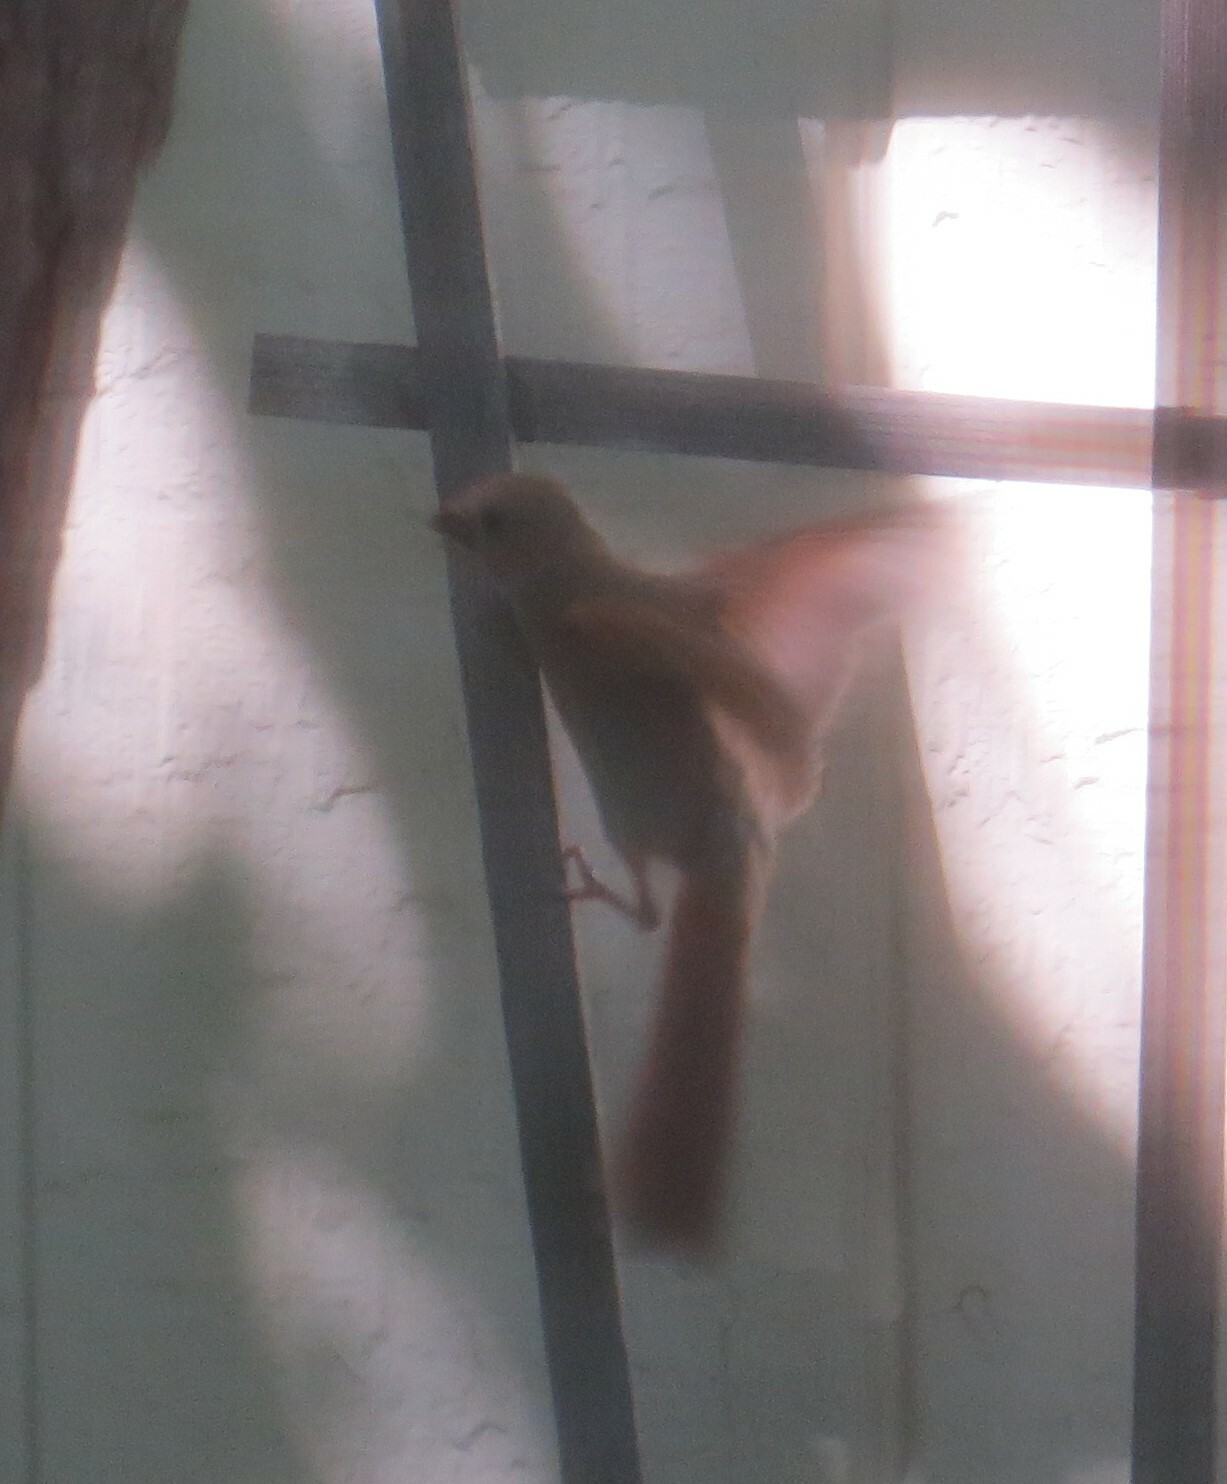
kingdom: Animalia
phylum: Chordata
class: Aves
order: Passeriformes
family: Cardinalidae
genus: Cardinalis
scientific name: Cardinalis cardinalis
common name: Northern cardinal
